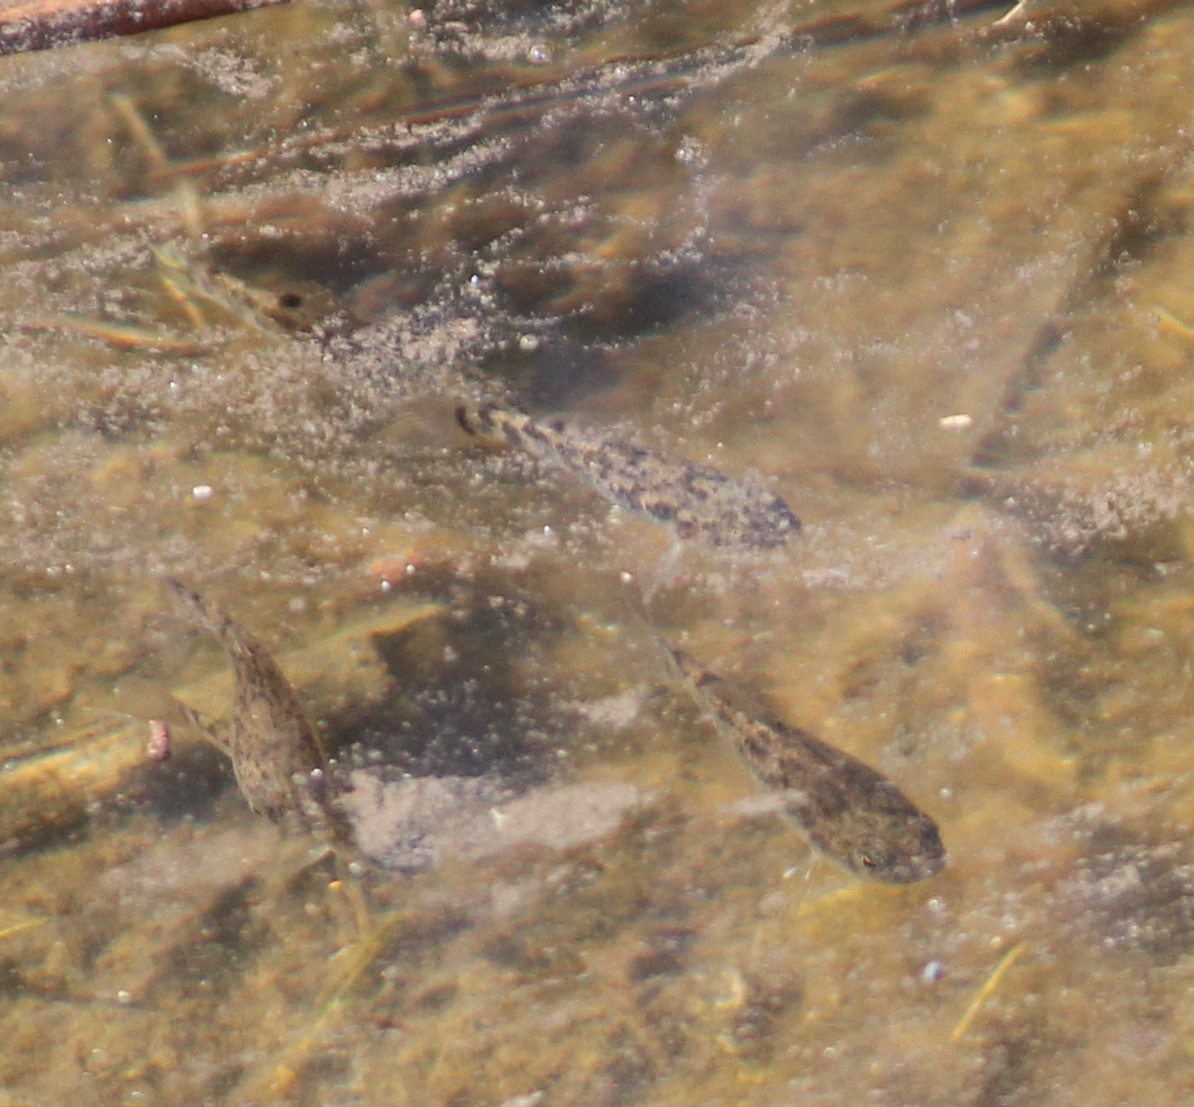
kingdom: Animalia
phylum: Chordata
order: Cyprinodontiformes
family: Cyprinodontidae
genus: Cyprinodon
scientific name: Cyprinodon variegatus
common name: Sheepshead minnow
